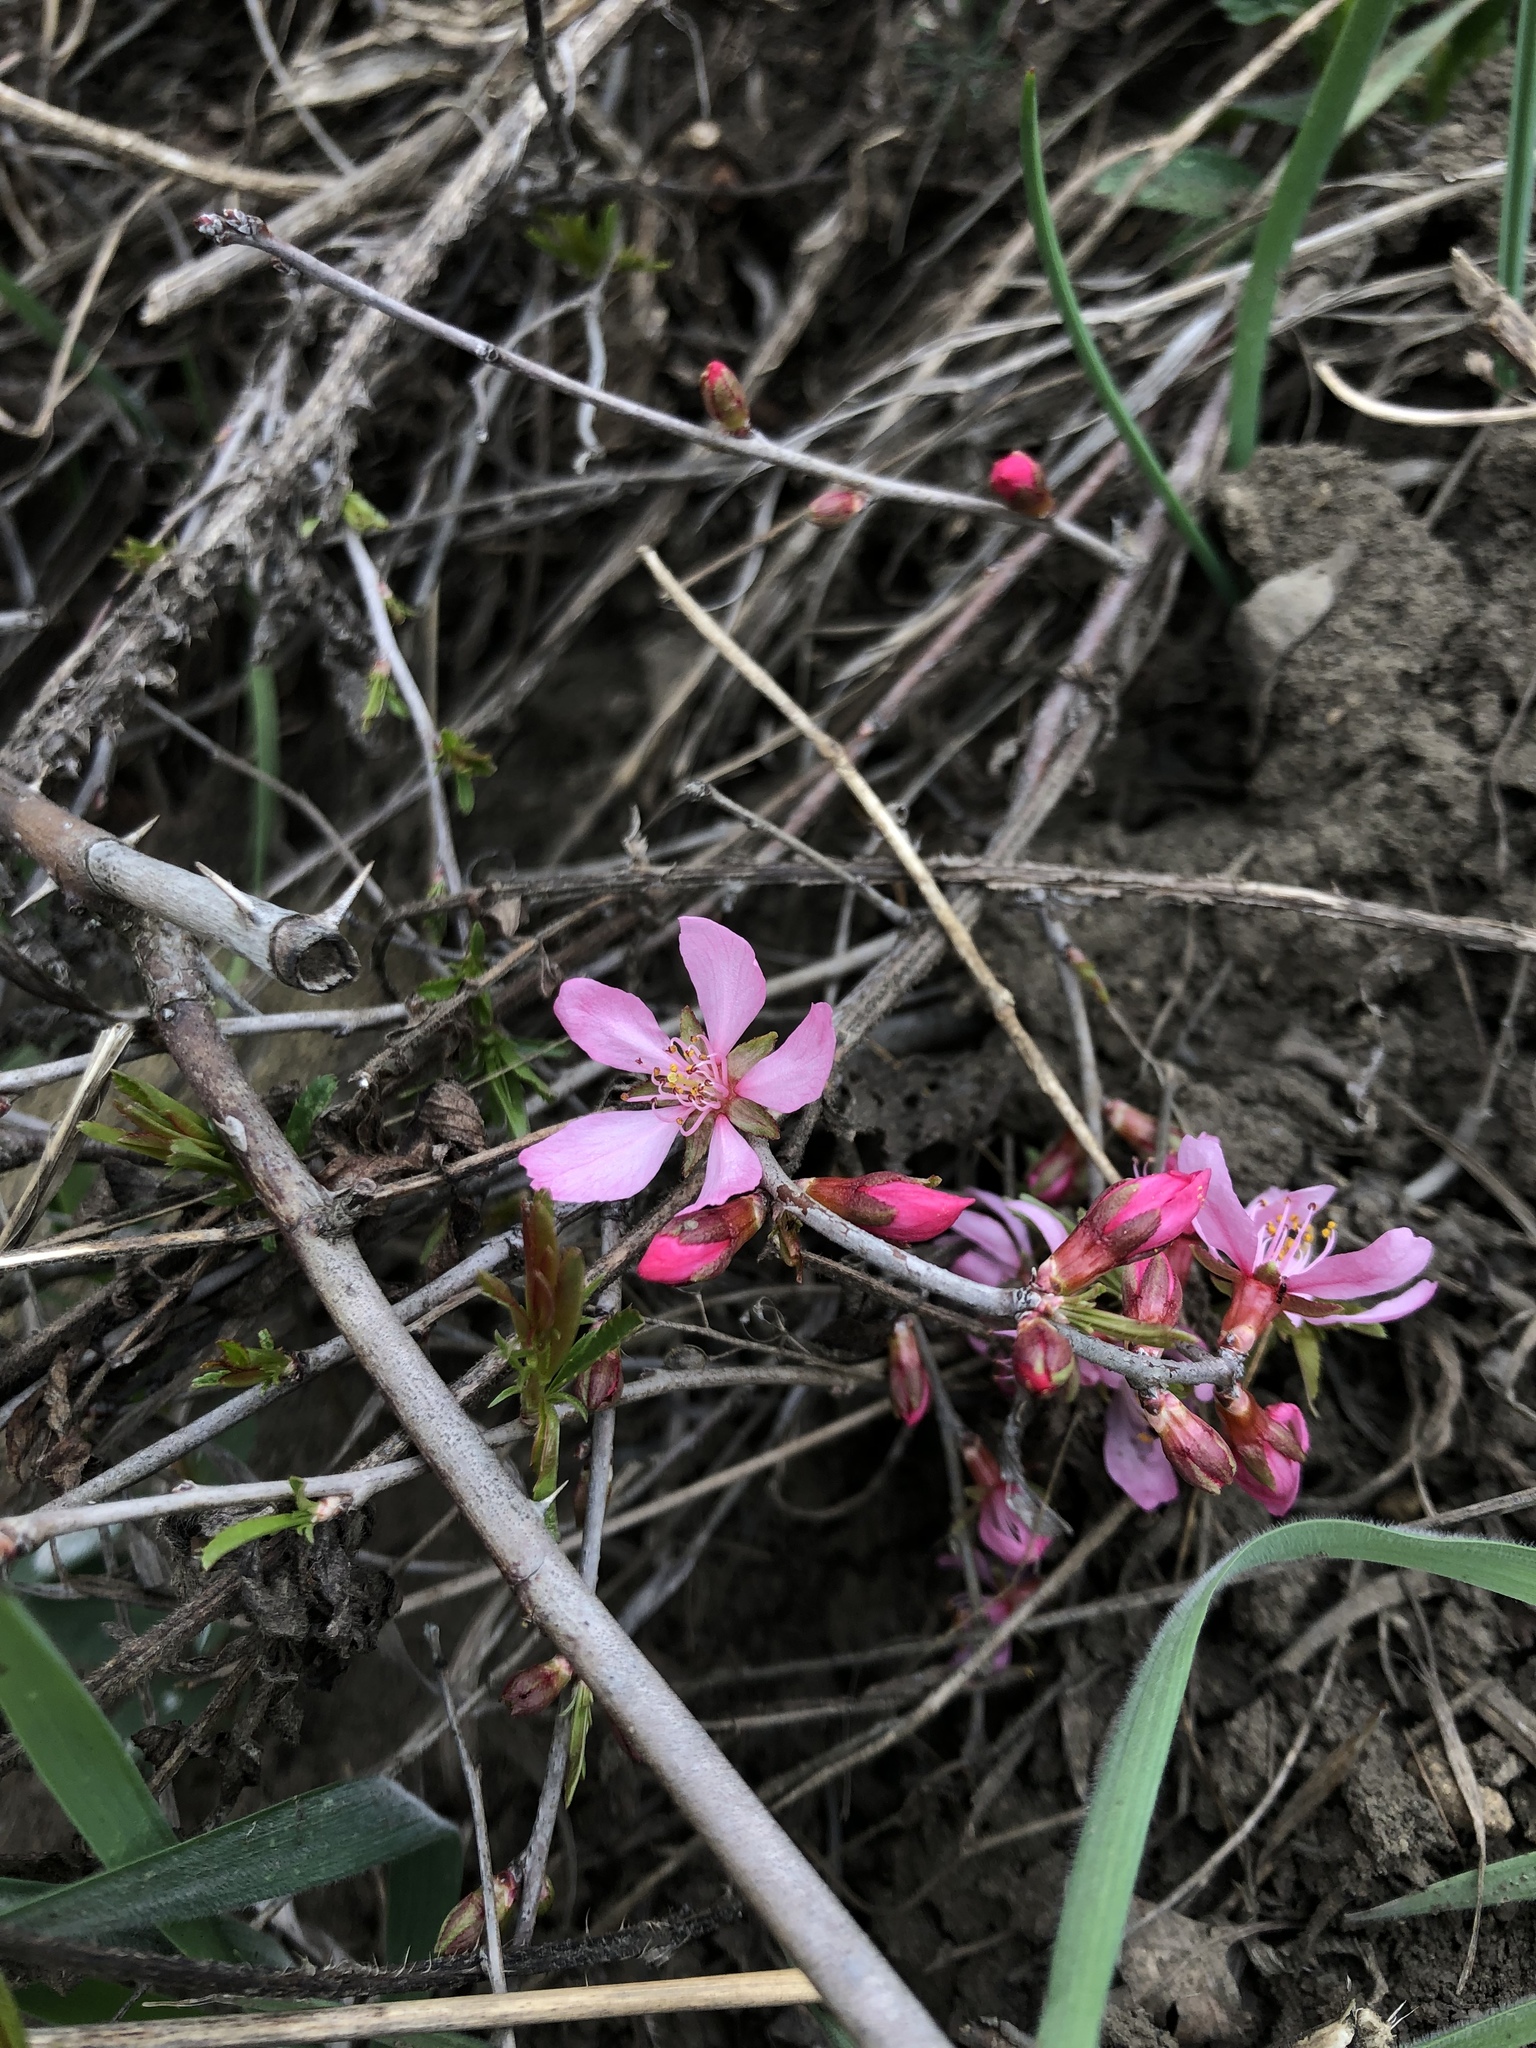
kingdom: Plantae
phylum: Tracheophyta
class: Magnoliopsida
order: Rosales
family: Rosaceae
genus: Prunus
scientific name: Prunus tenella
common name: Dwarf russian almond
